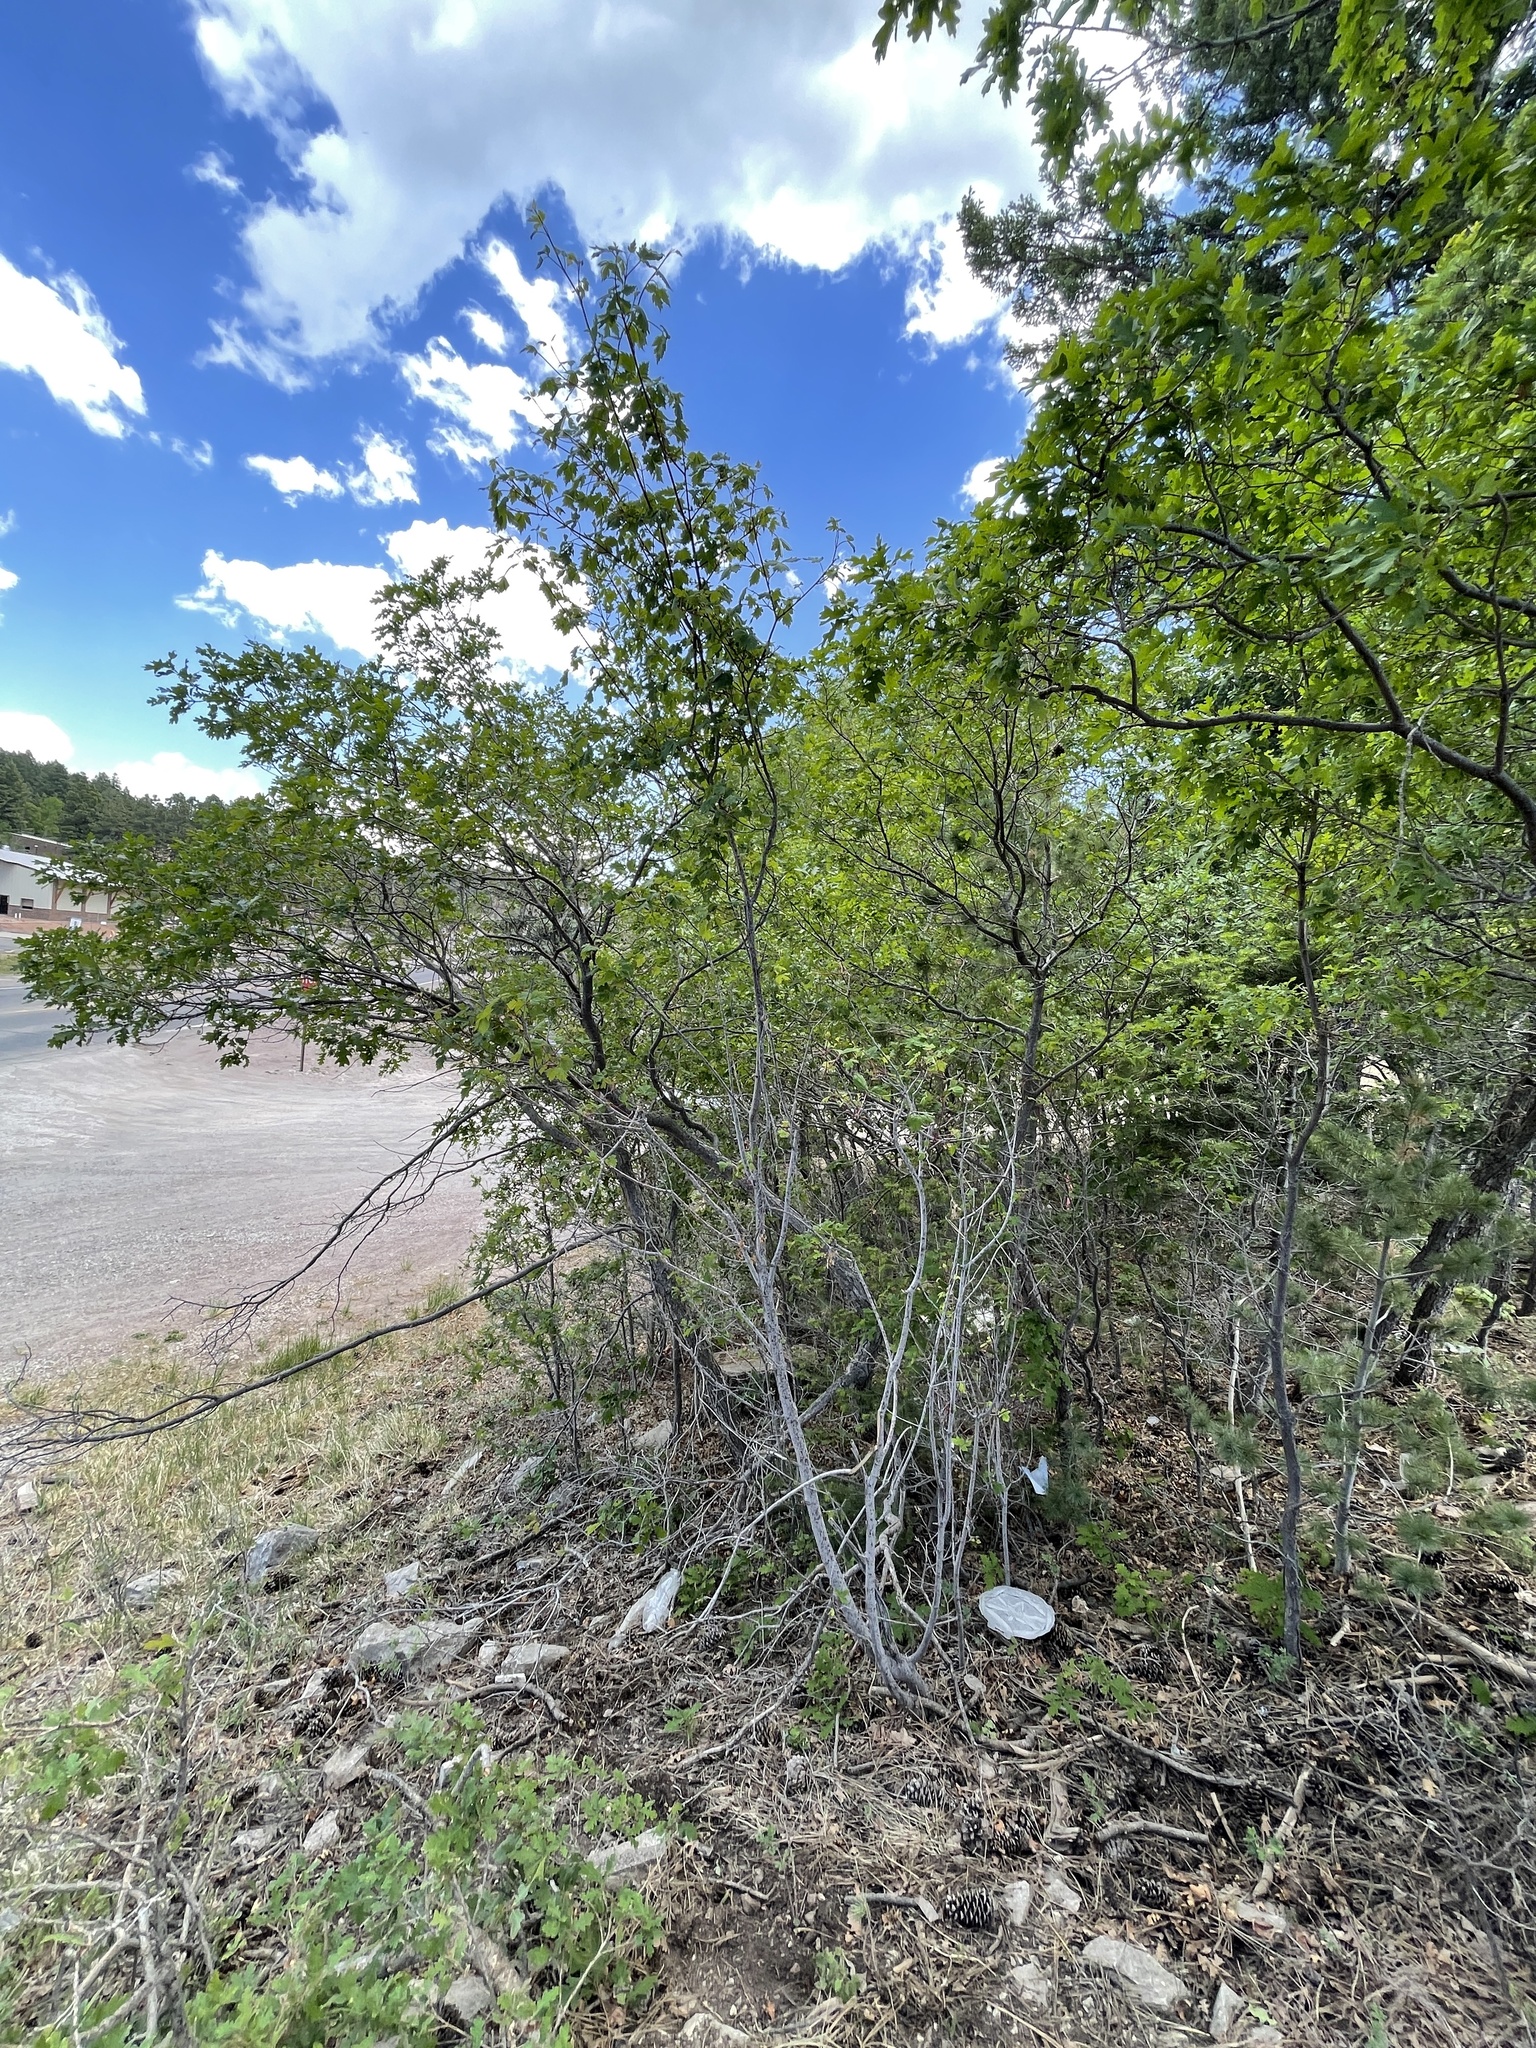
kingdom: Plantae
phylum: Tracheophyta
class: Magnoliopsida
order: Sapindales
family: Sapindaceae
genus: Acer
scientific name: Acer glabrum
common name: Rocky mountain maple
